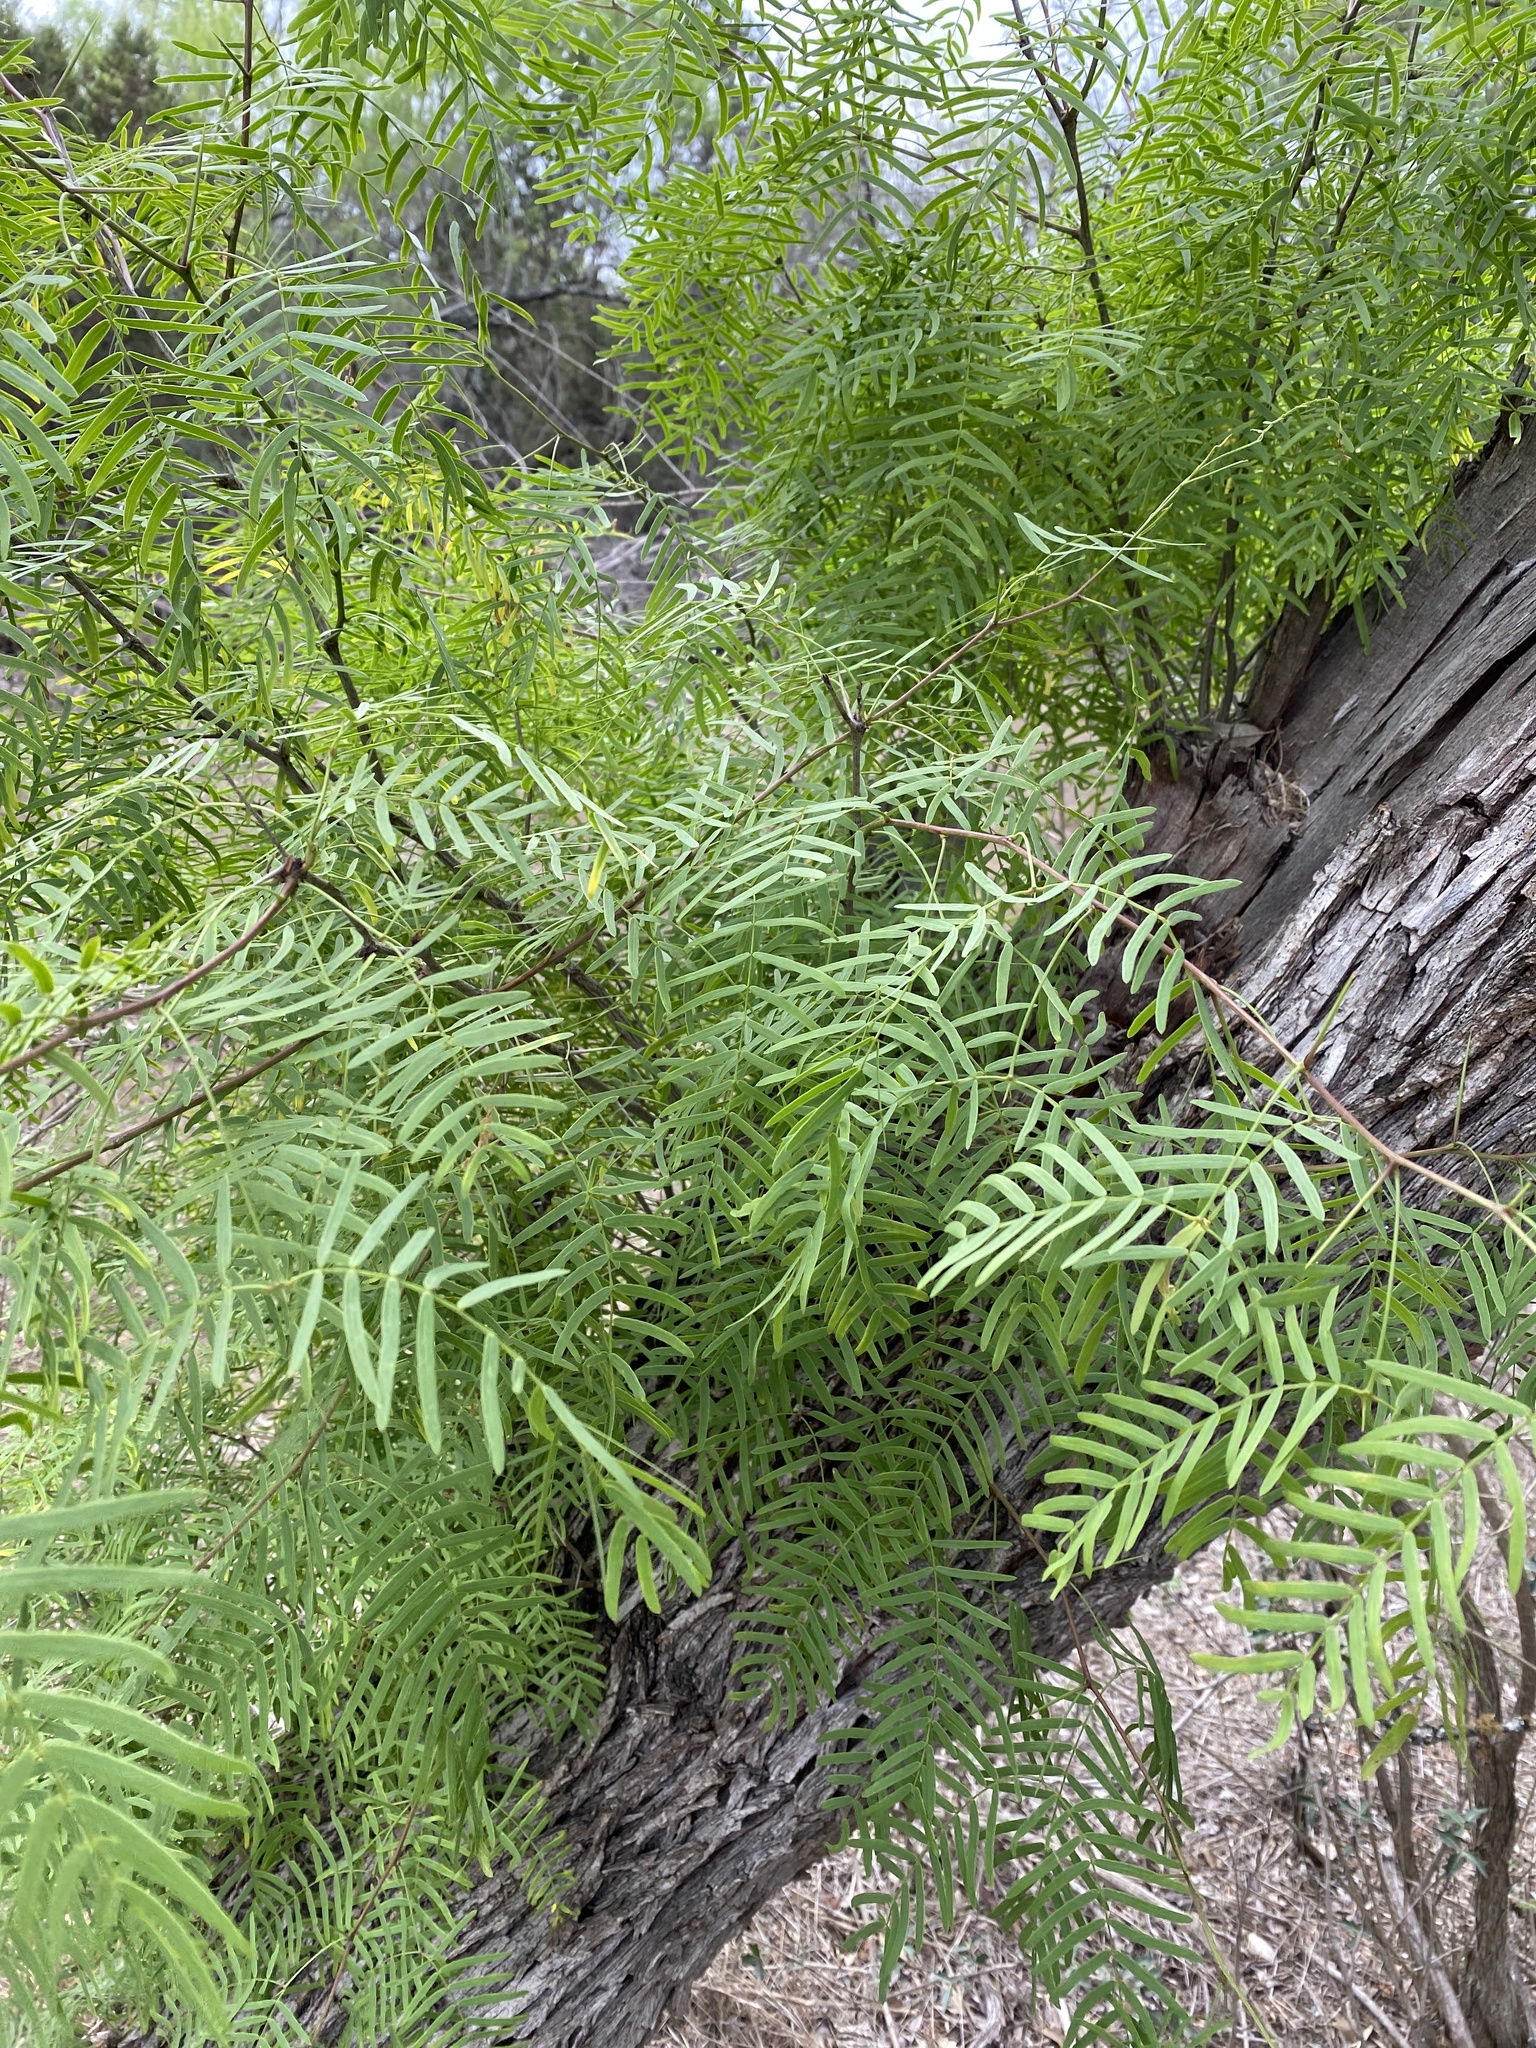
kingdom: Plantae
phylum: Tracheophyta
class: Magnoliopsida
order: Fabales
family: Fabaceae
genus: Prosopis
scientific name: Prosopis glandulosa
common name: Honey mesquite
